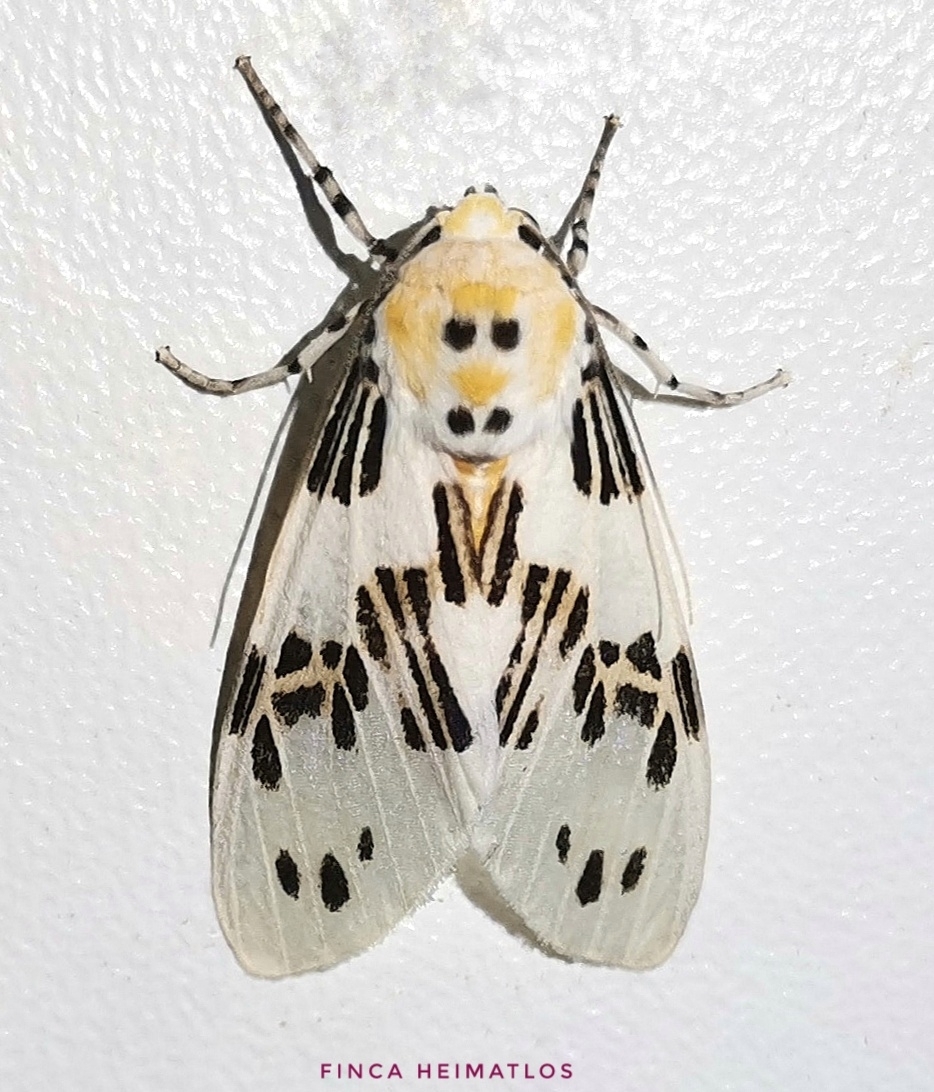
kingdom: Animalia
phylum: Arthropoda
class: Insecta
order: Lepidoptera
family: Erebidae
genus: Idalus
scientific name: Idalus daga
